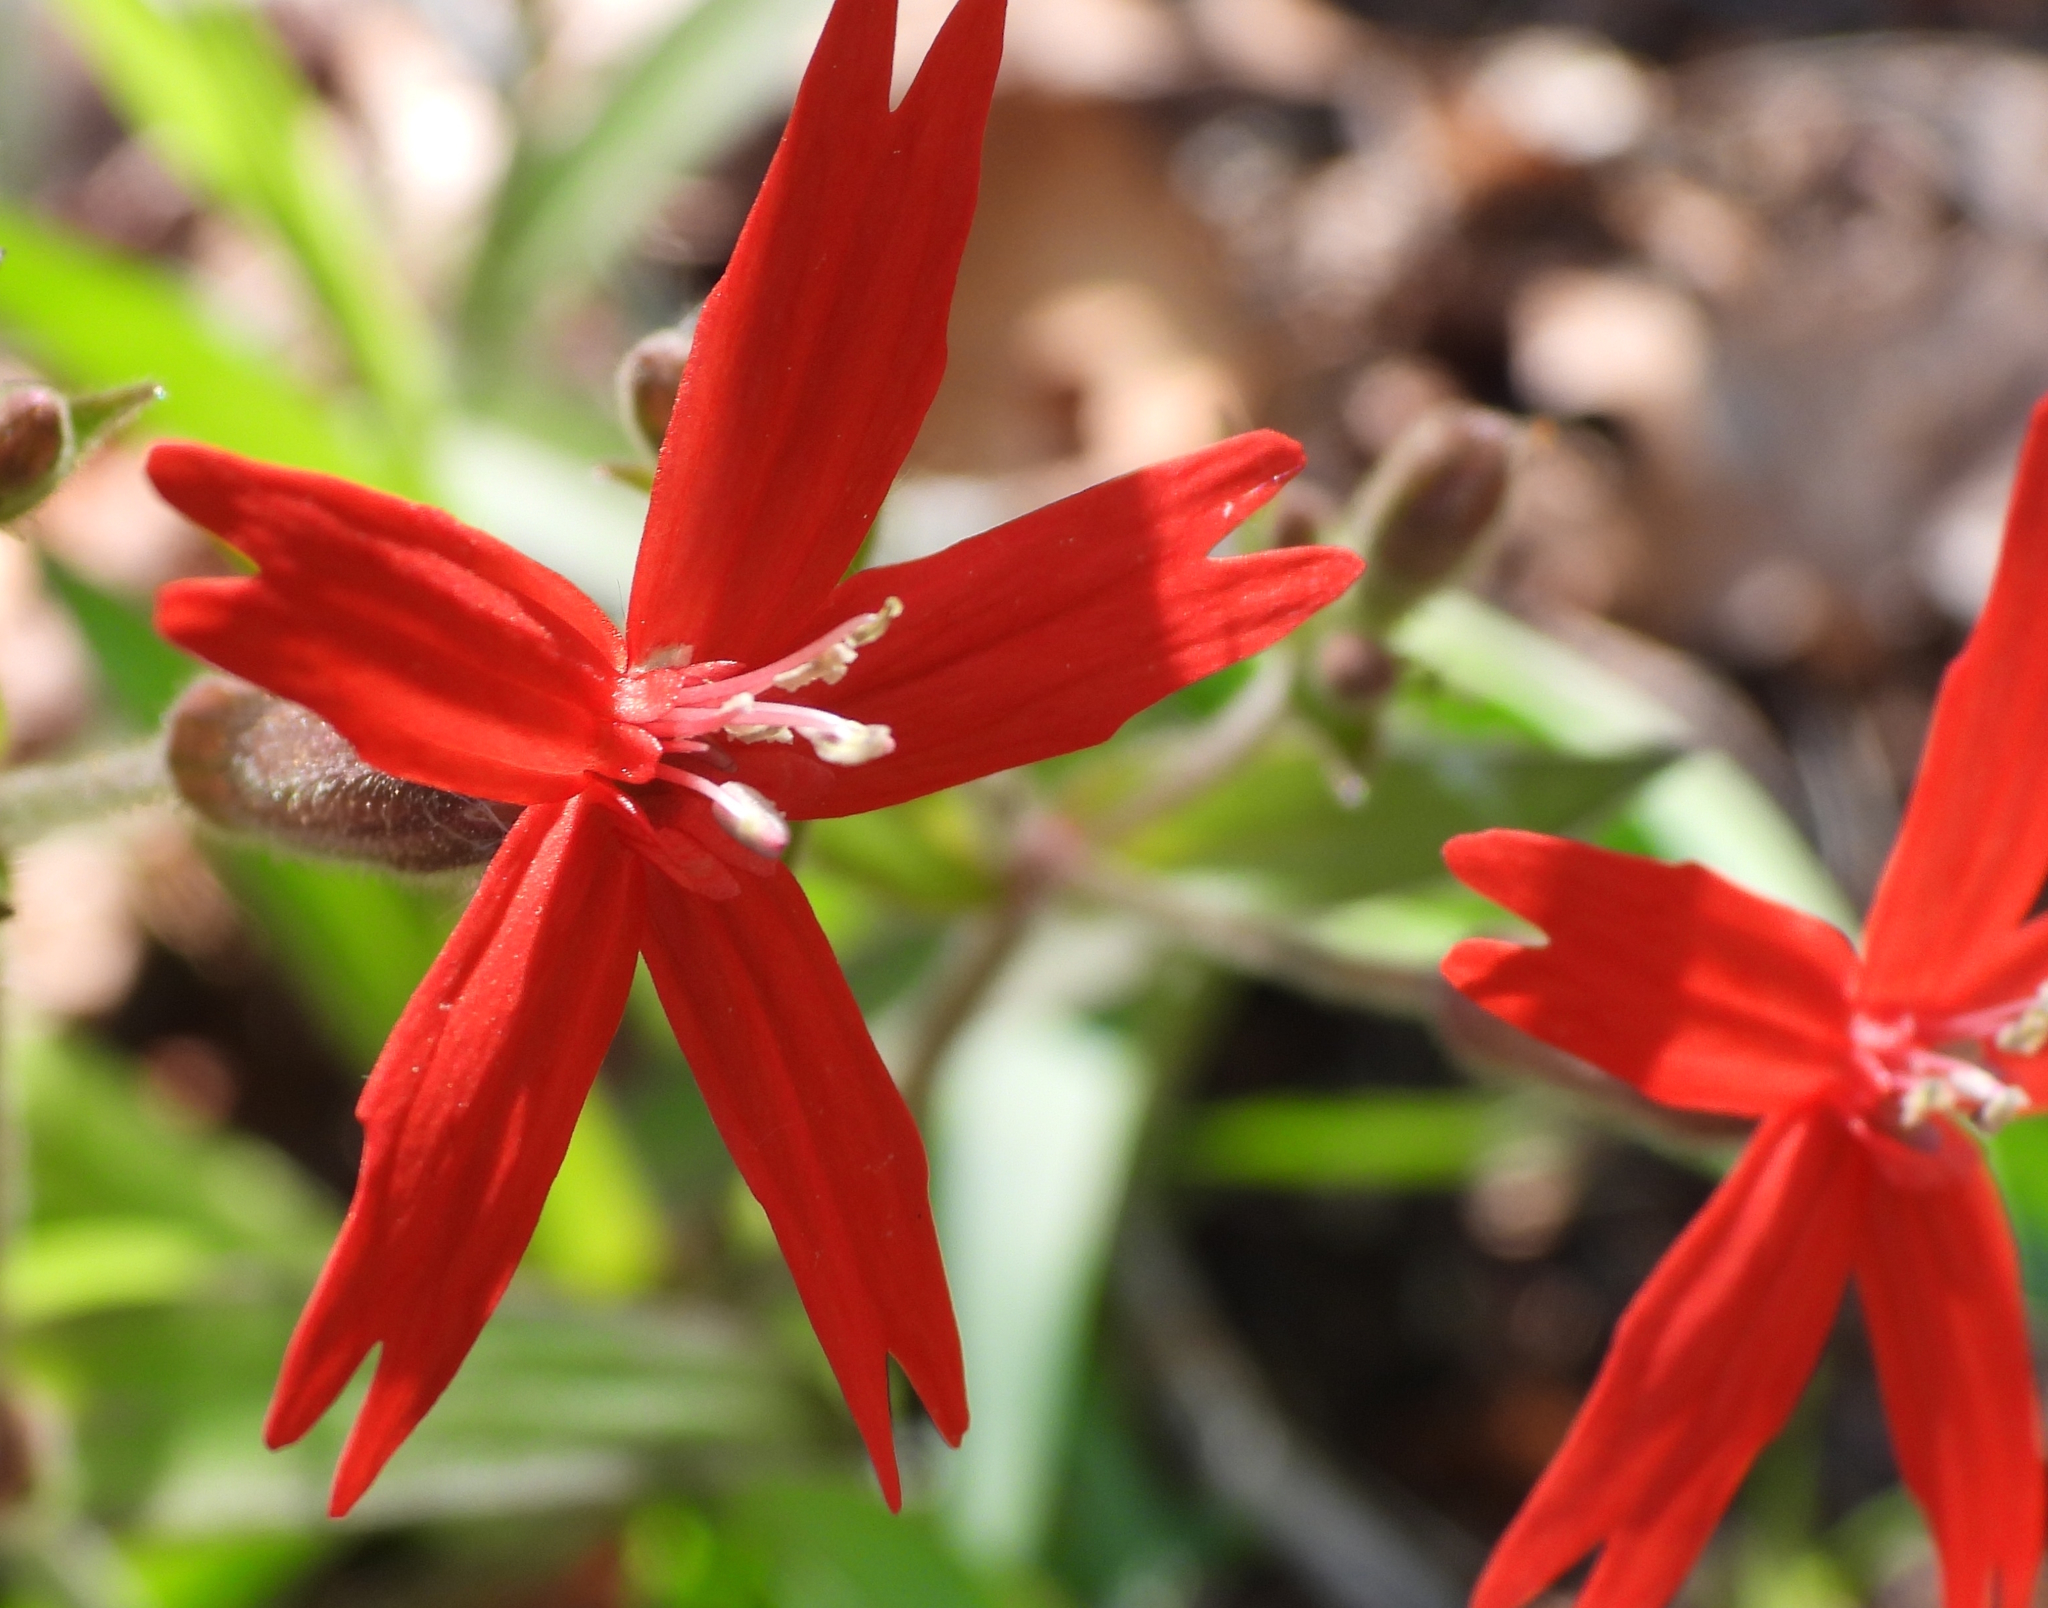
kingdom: Plantae
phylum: Tracheophyta
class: Magnoliopsida
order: Caryophyllales
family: Caryophyllaceae
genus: Silene
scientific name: Silene virginica
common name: Fire-pink
